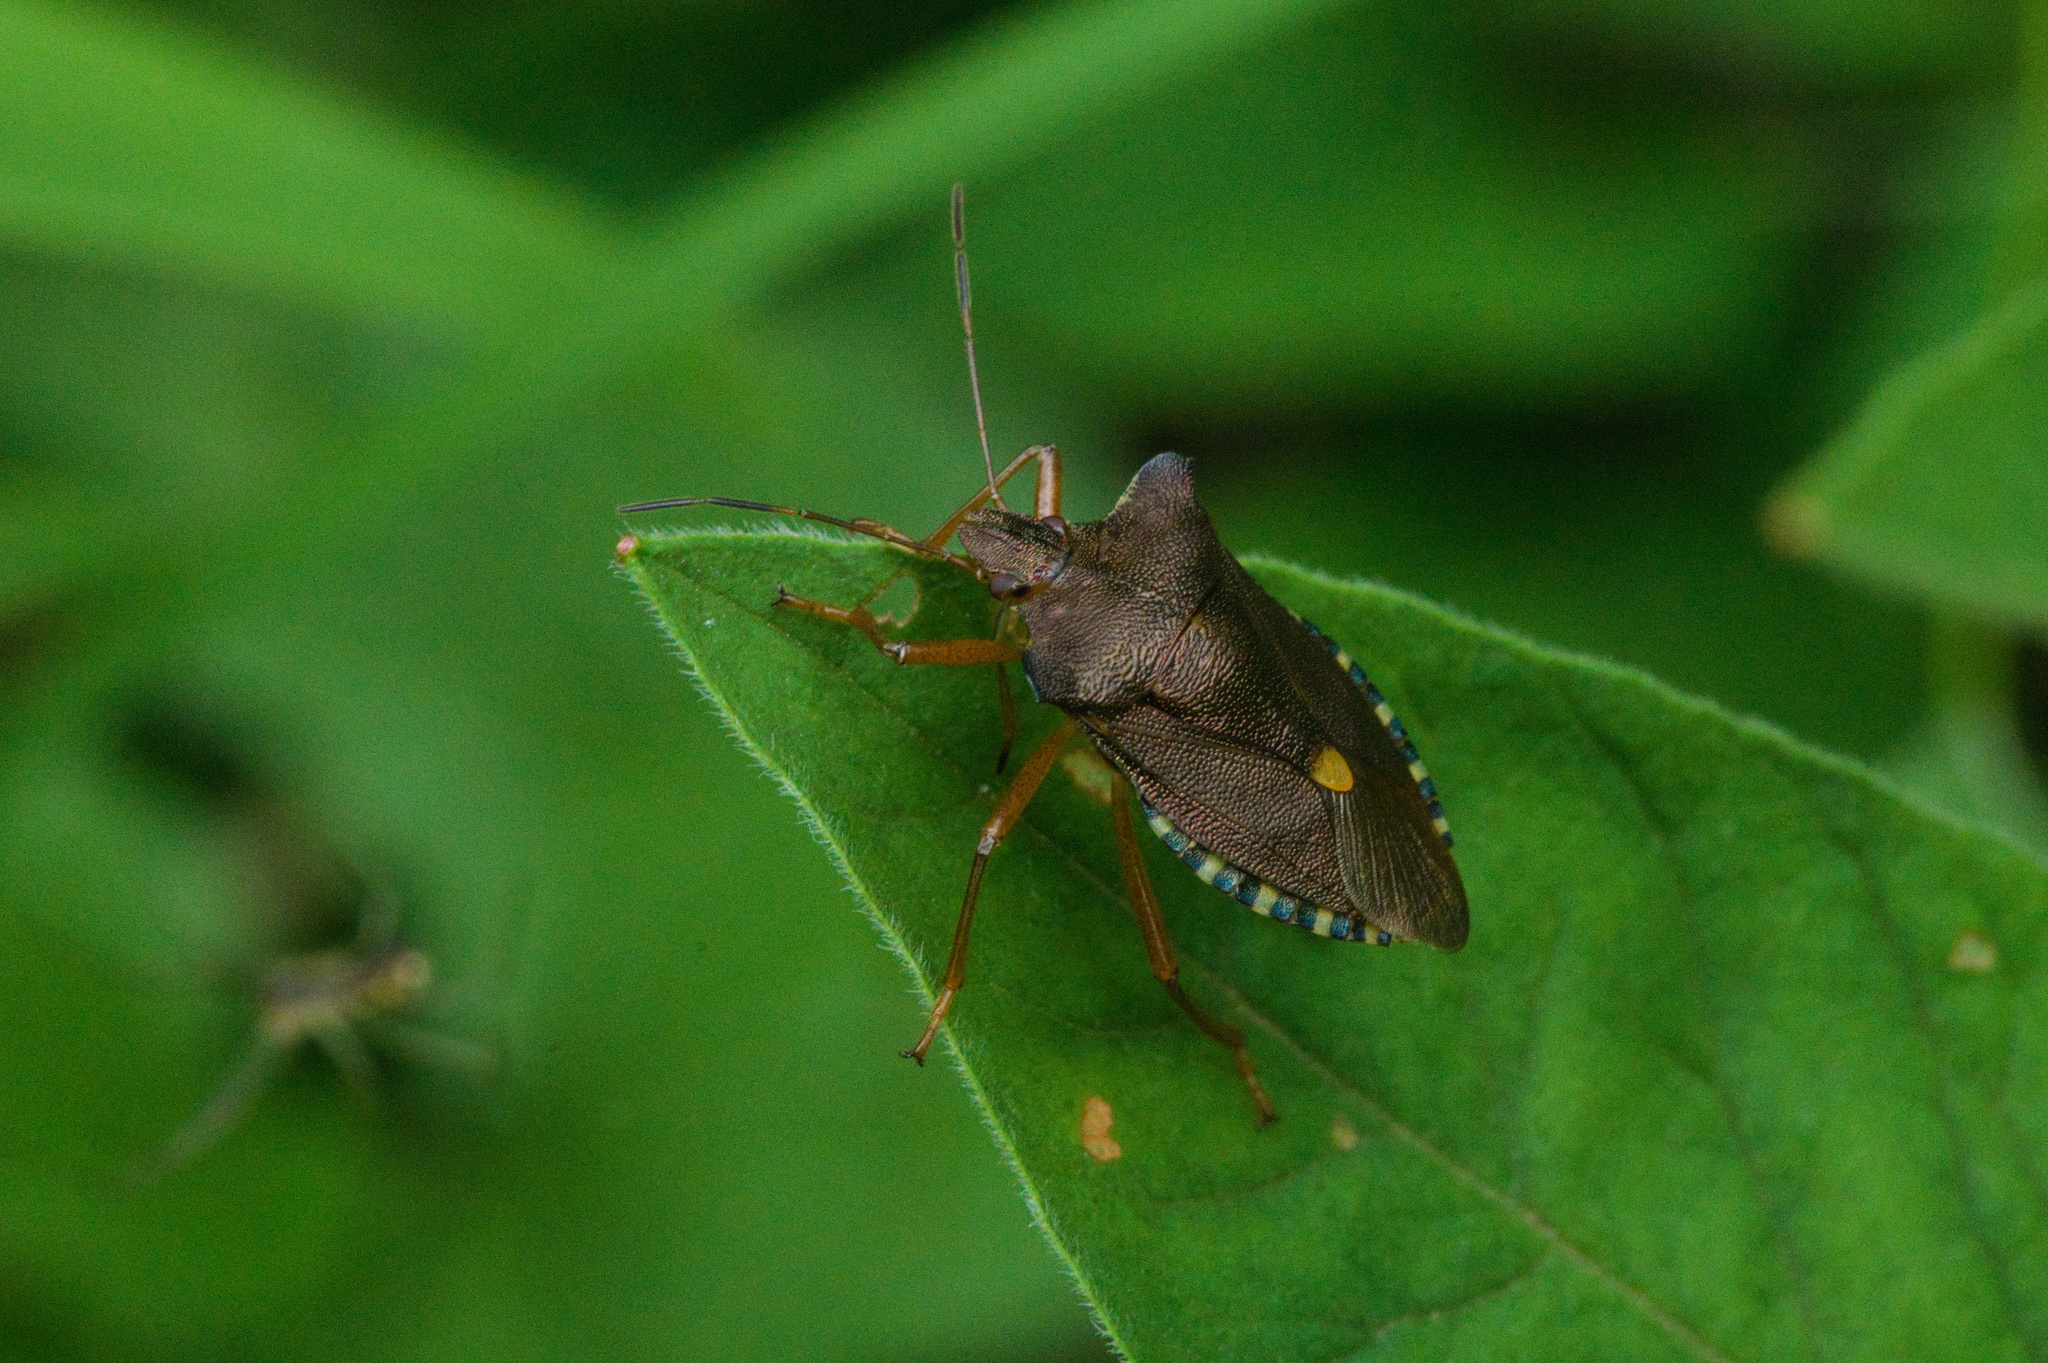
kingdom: Animalia
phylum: Arthropoda
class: Insecta
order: Hemiptera
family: Pentatomidae
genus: Pentatoma
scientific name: Pentatoma rufipes
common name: Forest bug
